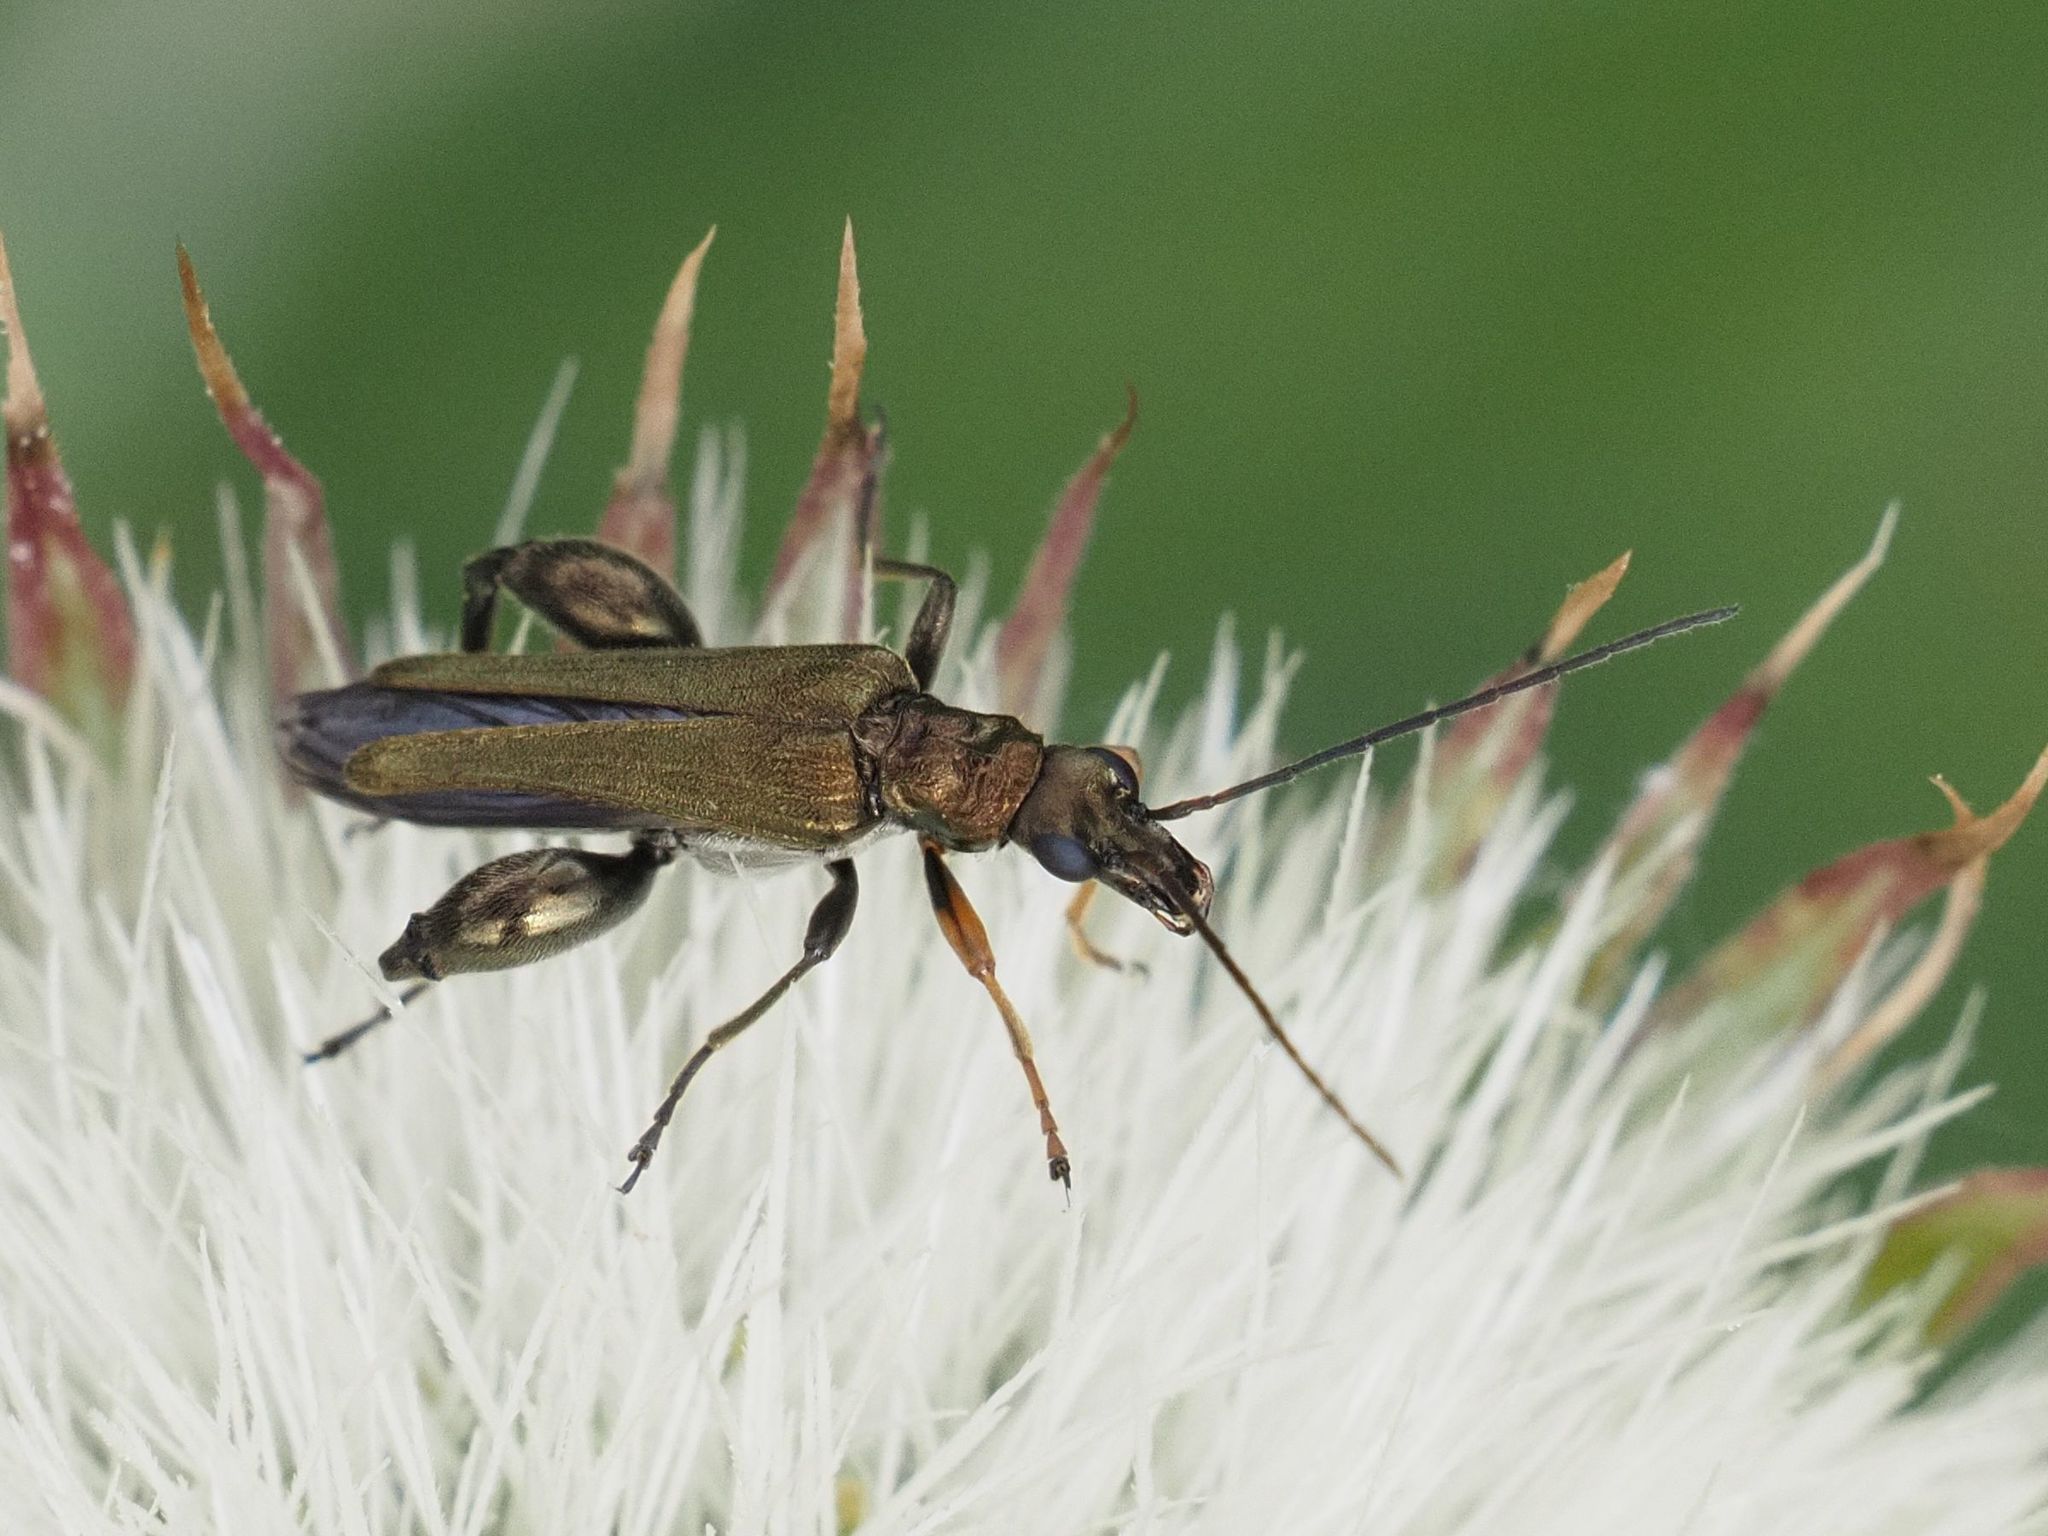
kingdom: Animalia
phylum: Arthropoda
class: Insecta
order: Coleoptera
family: Oedemeridae
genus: Oedemera
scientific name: Oedemera flavipes
